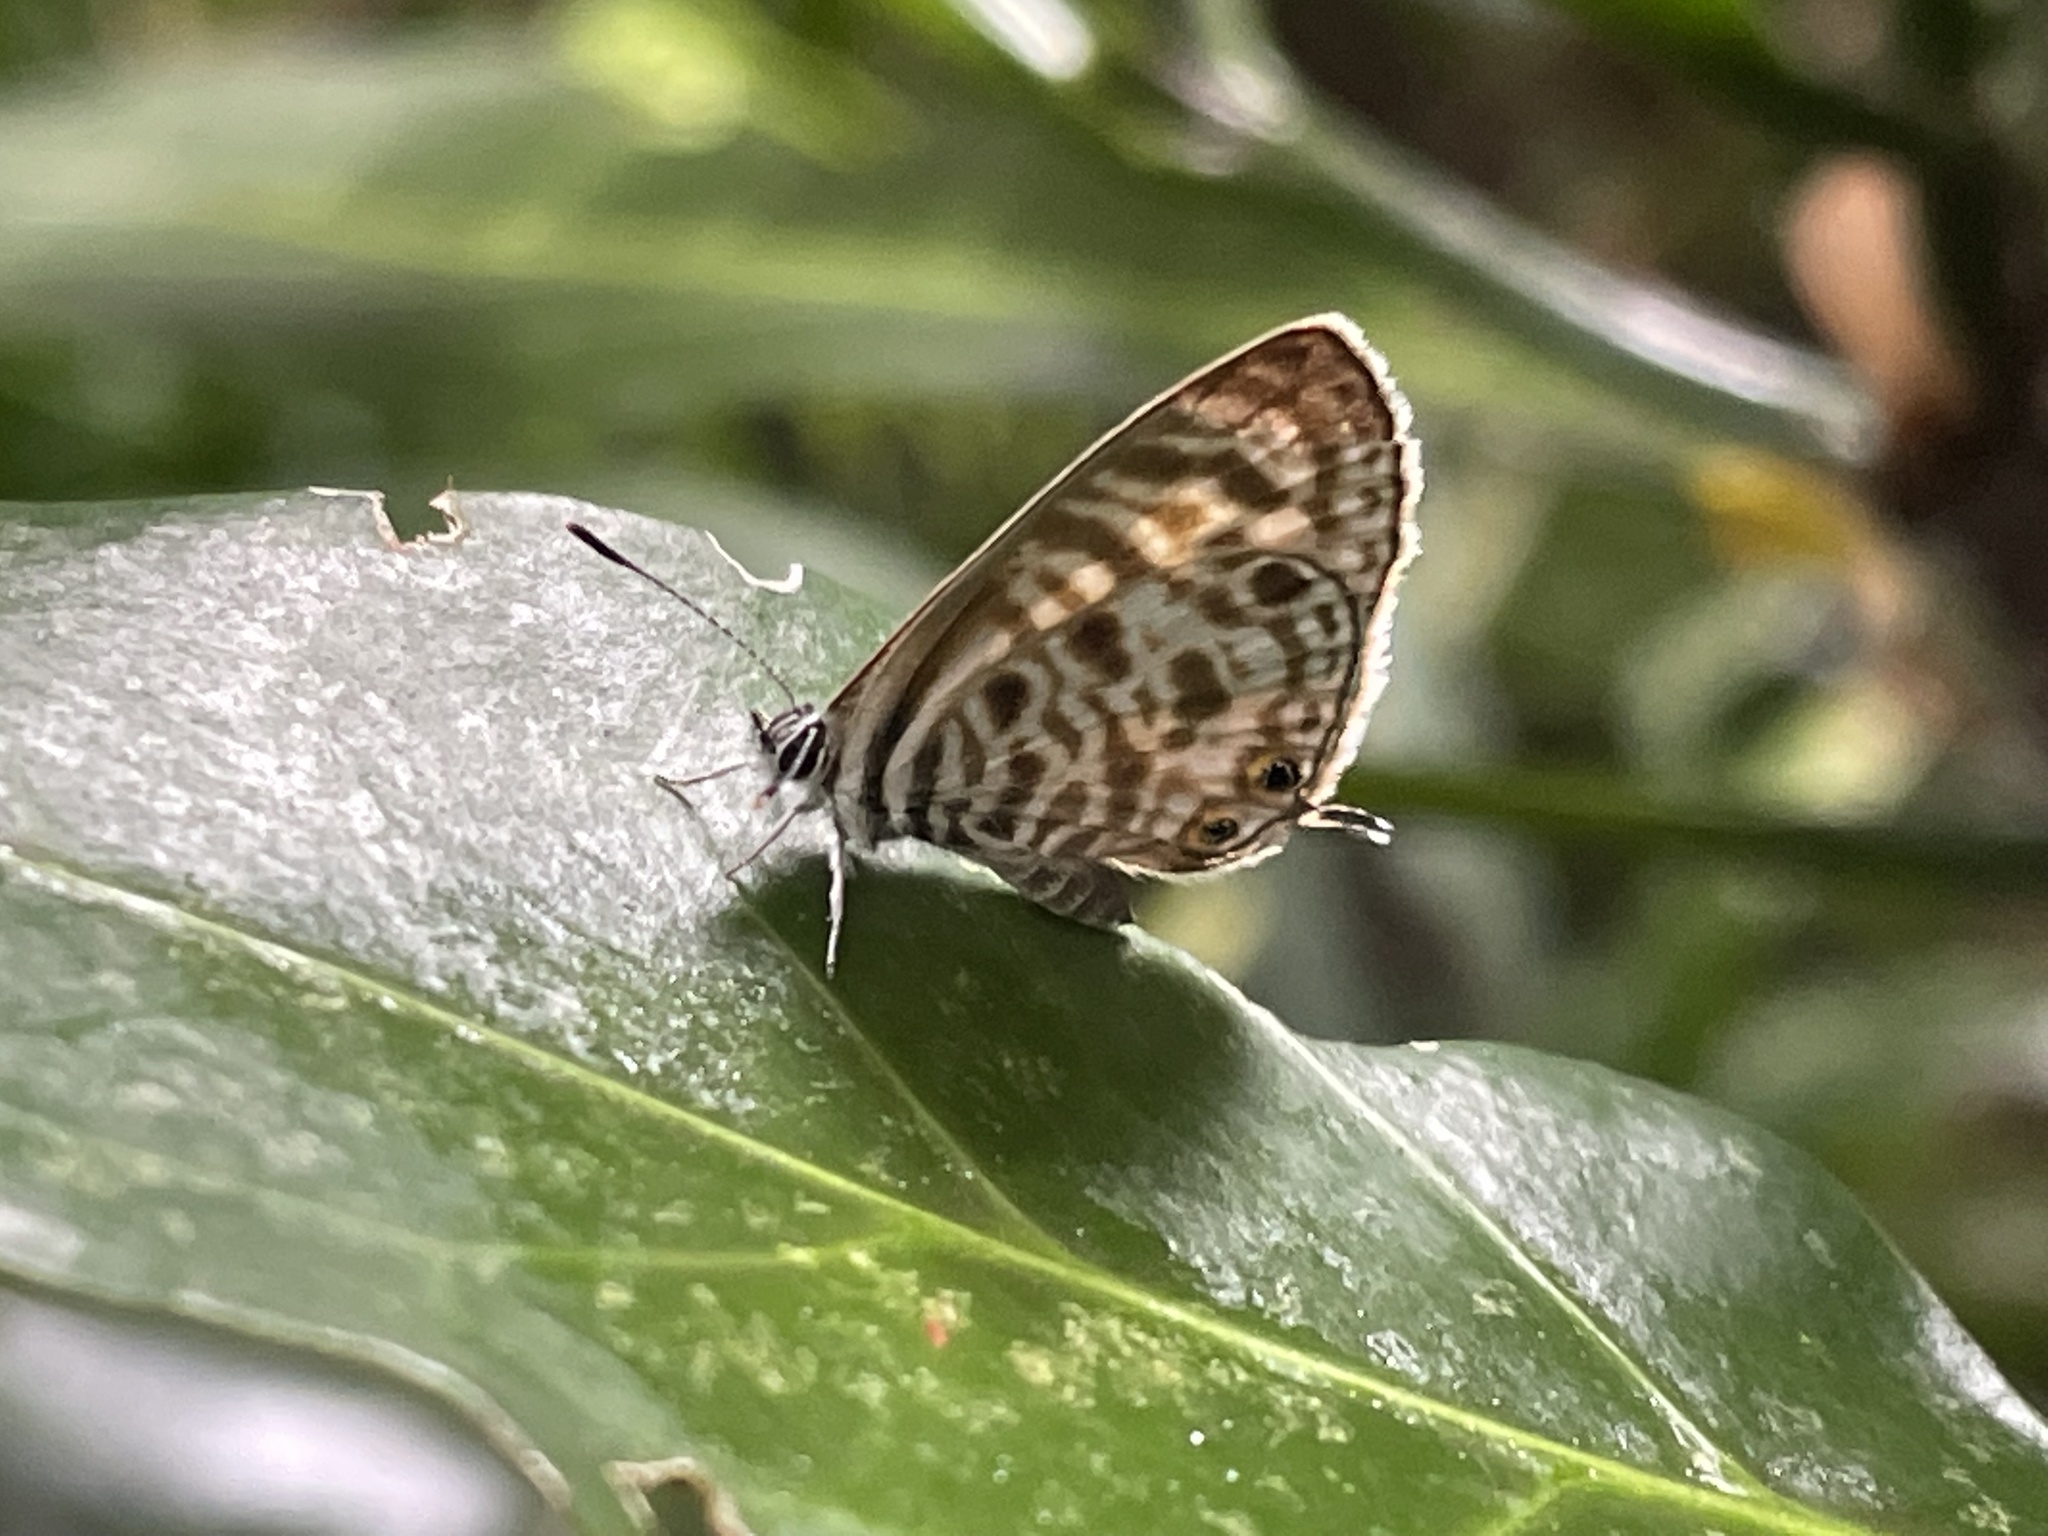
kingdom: Animalia
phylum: Arthropoda
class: Insecta
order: Lepidoptera
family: Lycaenidae
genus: Leptotes
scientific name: Leptotes
